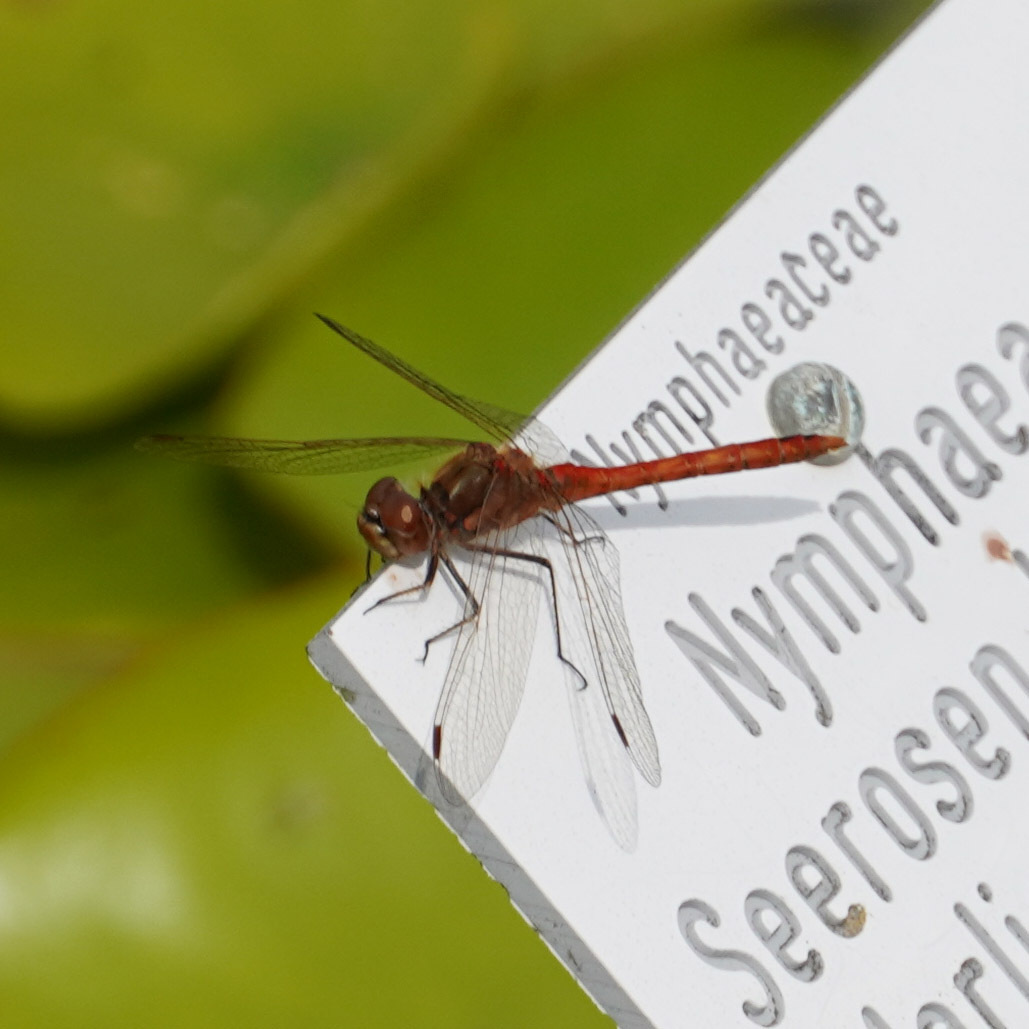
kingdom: Animalia
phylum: Arthropoda
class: Insecta
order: Odonata
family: Libellulidae
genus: Sympetrum
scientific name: Sympetrum vulgatum
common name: Vagrant darter
